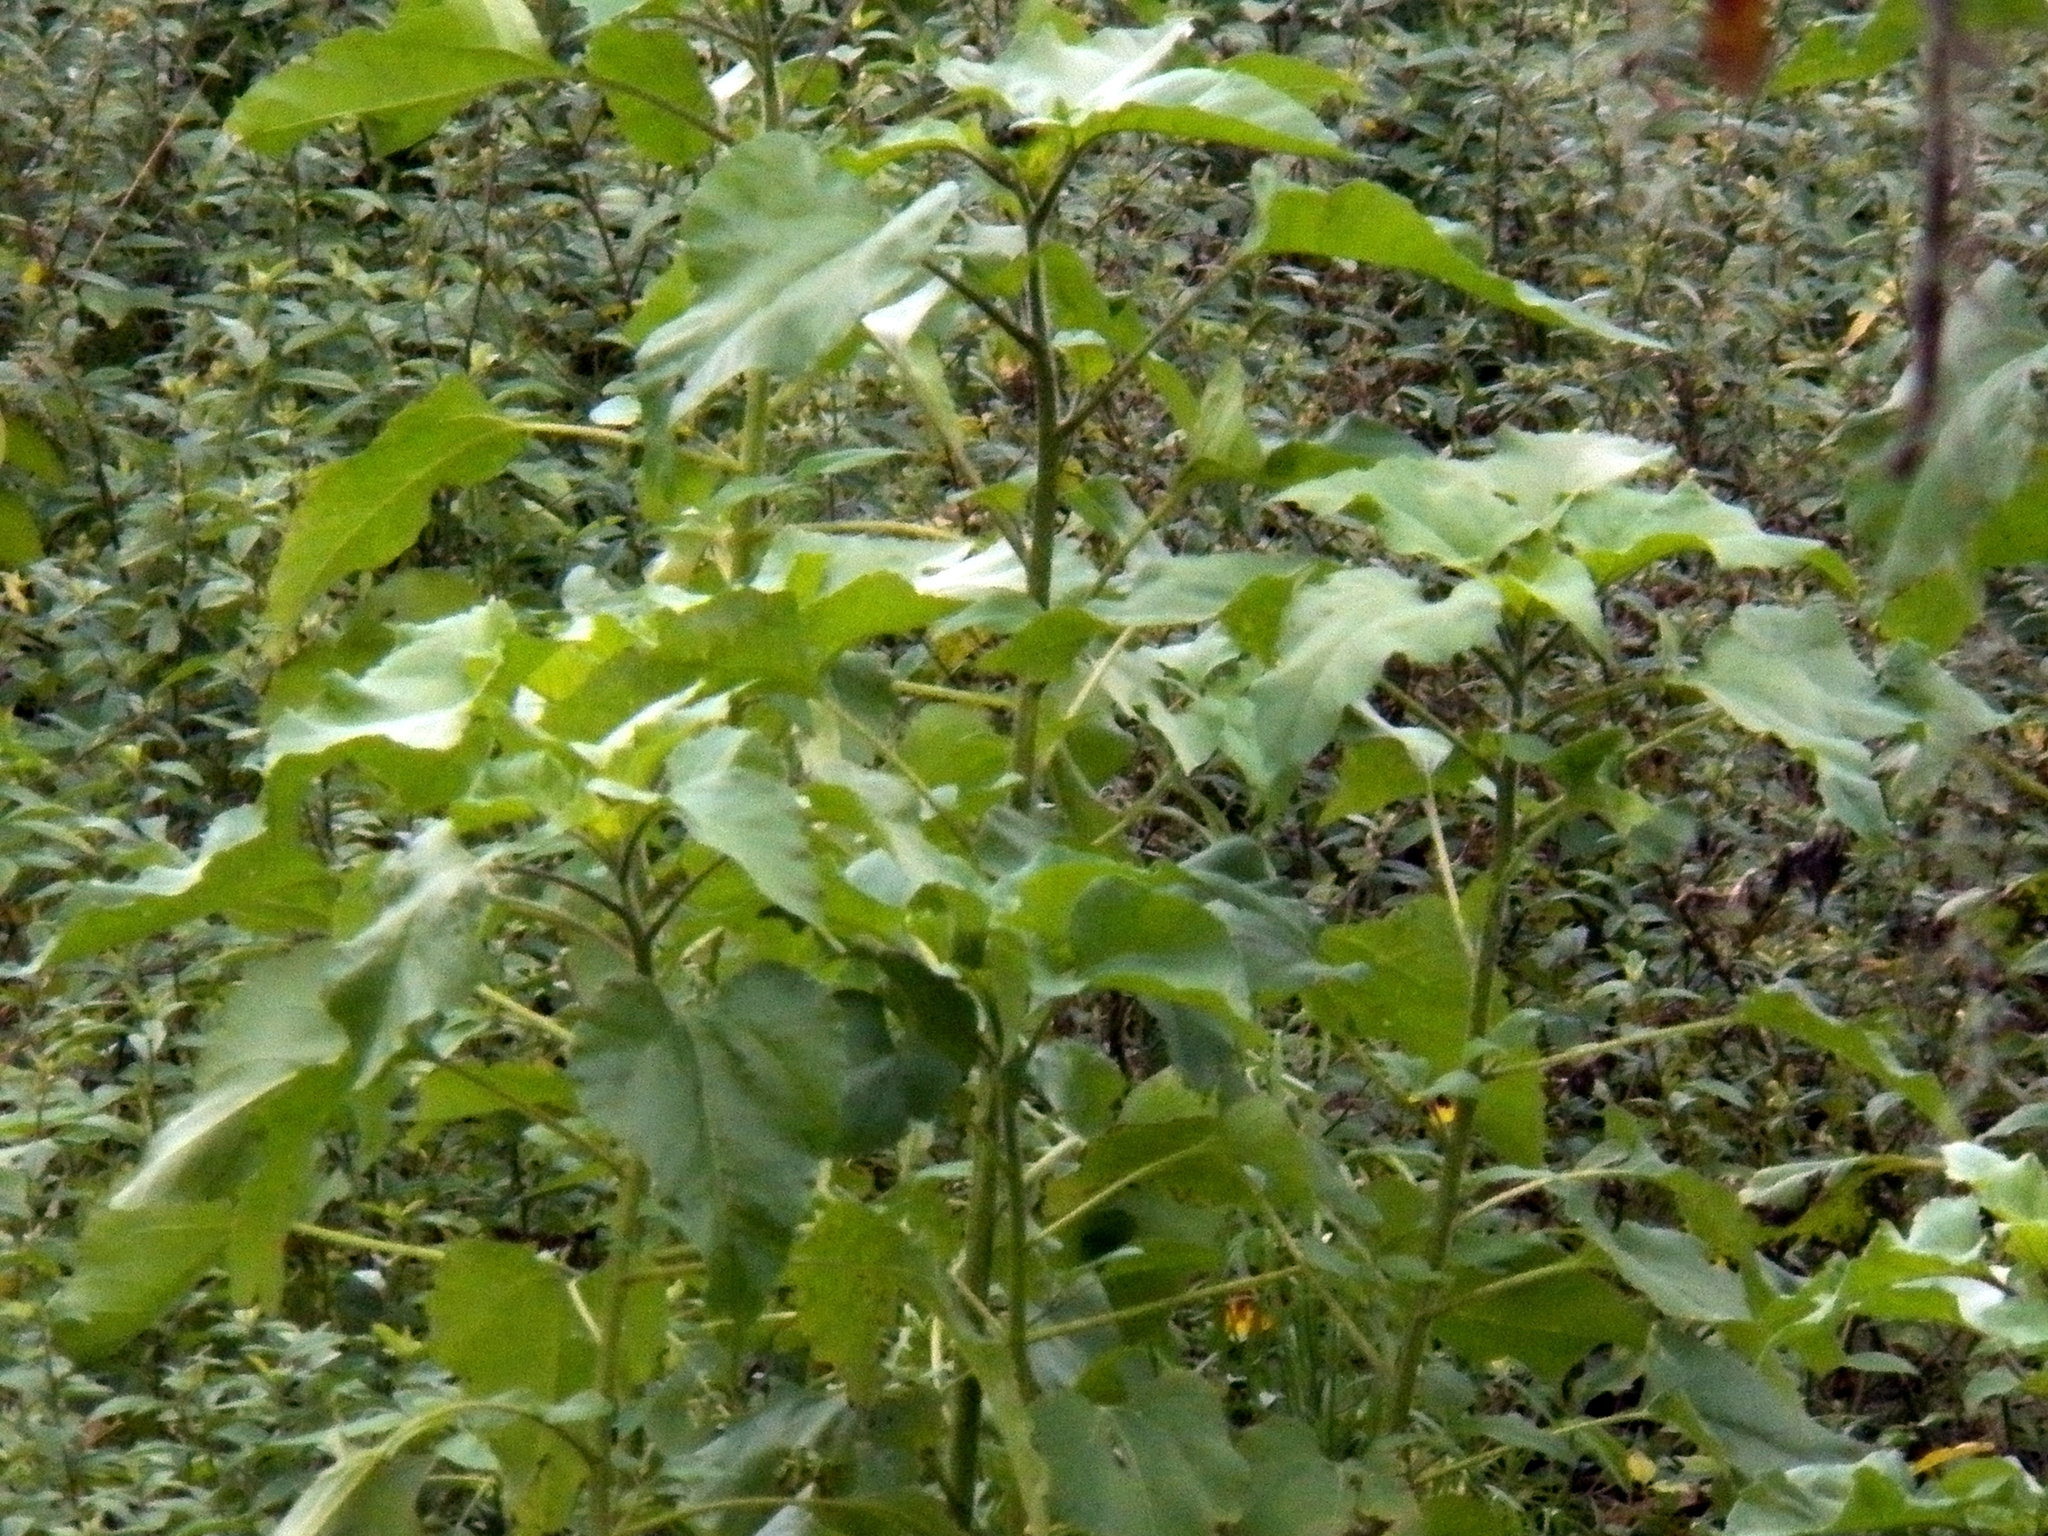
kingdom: Plantae
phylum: Tracheophyta
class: Magnoliopsida
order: Asterales
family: Asteraceae
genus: Helianthus
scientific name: Helianthus annuus
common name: Sunflower
